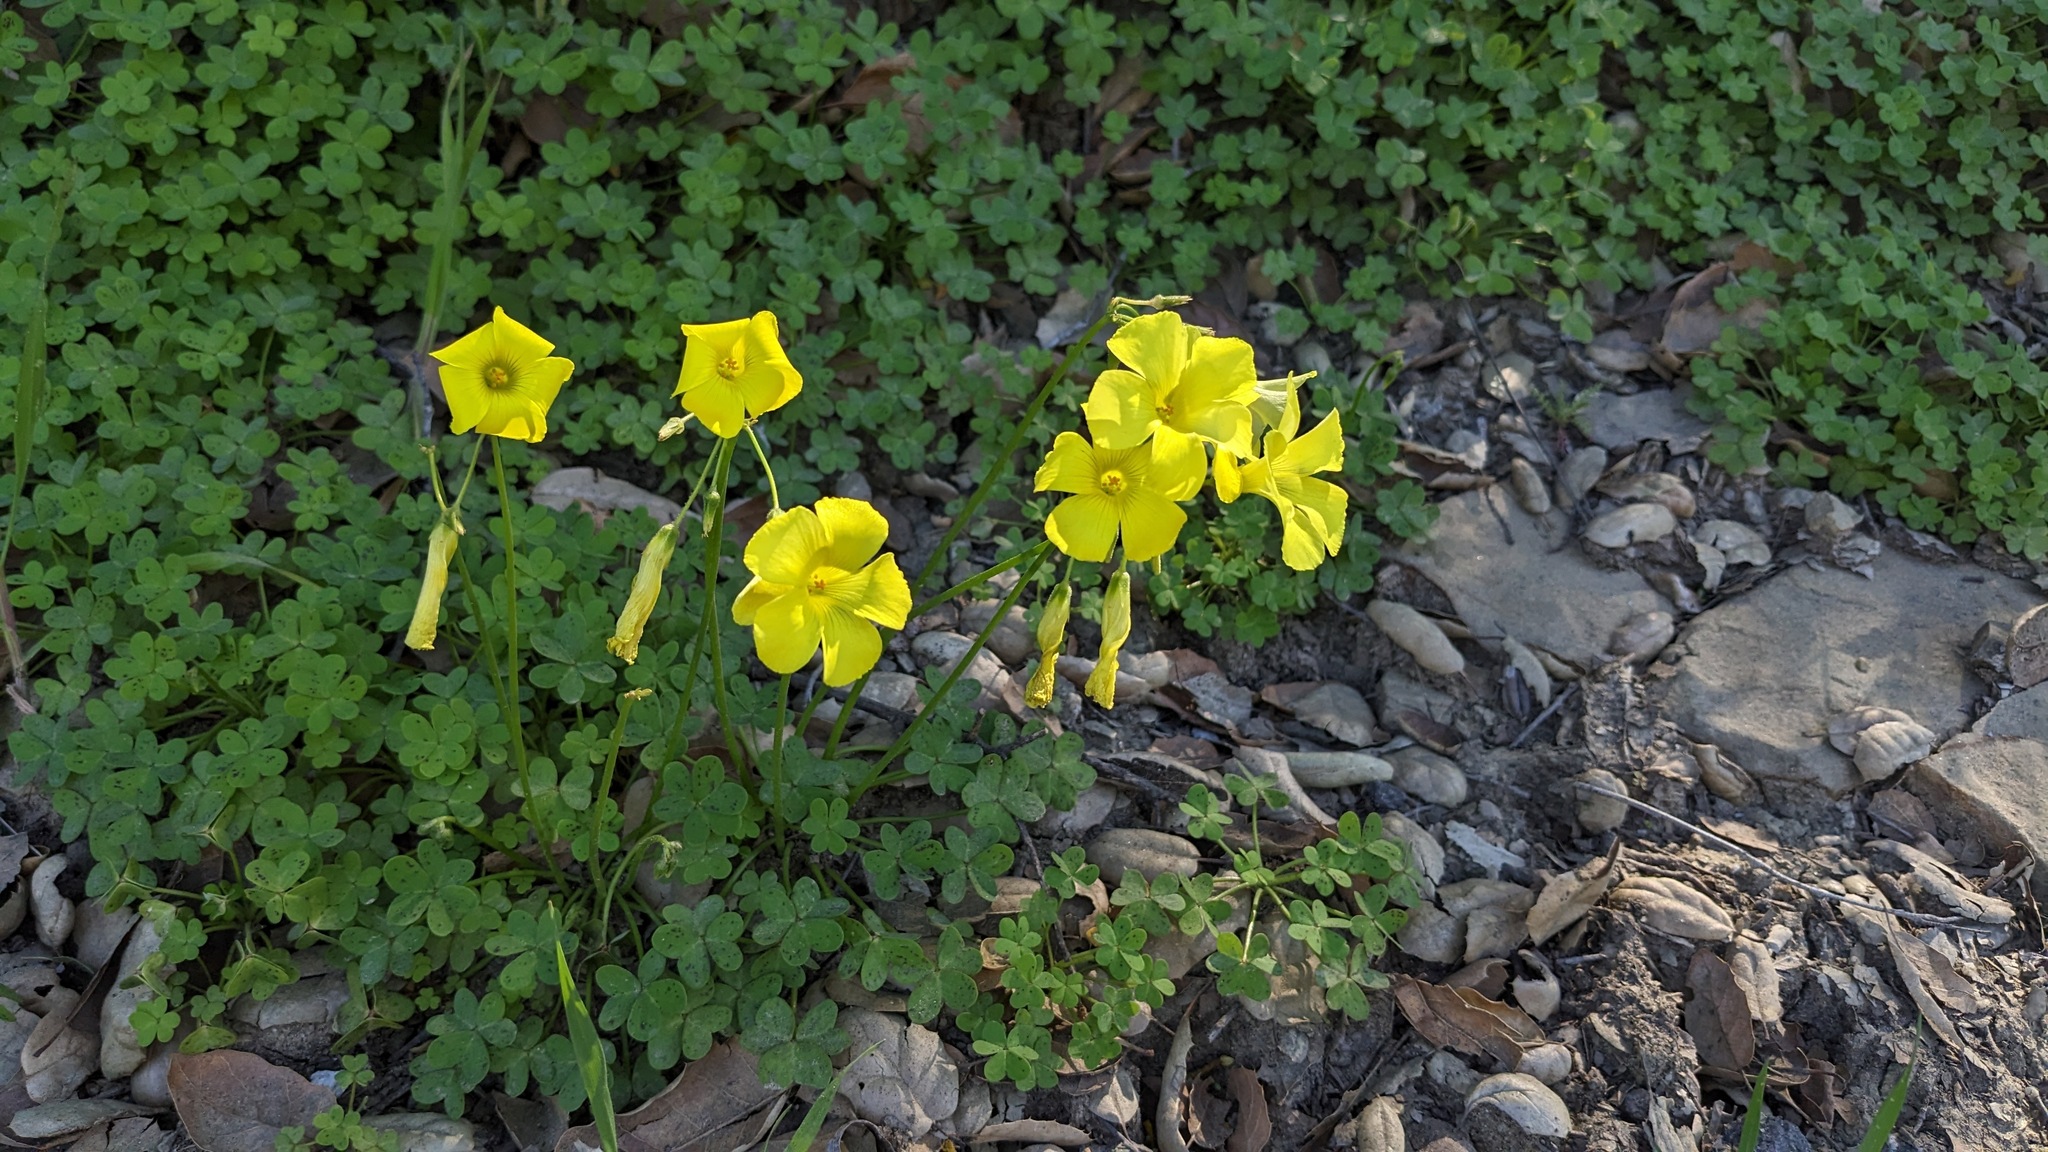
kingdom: Plantae
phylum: Tracheophyta
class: Magnoliopsida
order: Oxalidales
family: Oxalidaceae
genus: Oxalis
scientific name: Oxalis pes-caprae
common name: Bermuda-buttercup
